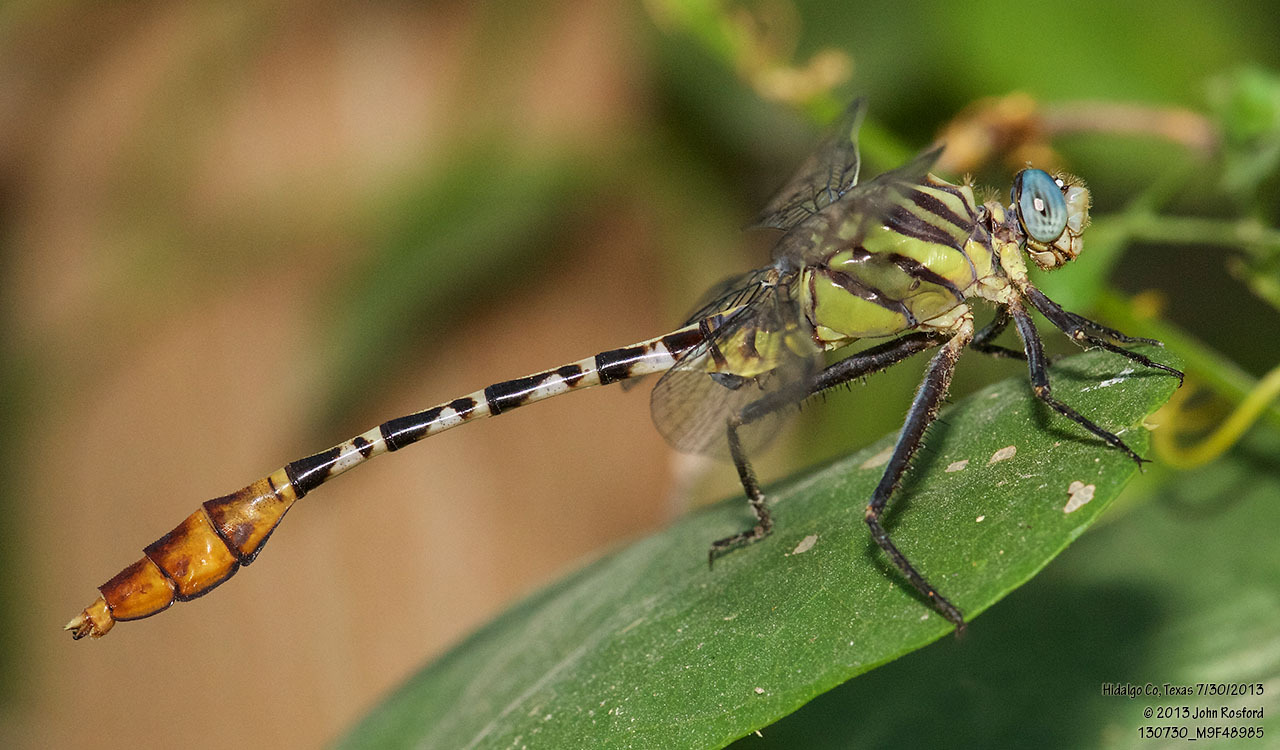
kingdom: Animalia
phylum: Arthropoda
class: Insecta
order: Odonata
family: Gomphidae
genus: Dromogomphus
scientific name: Dromogomphus spoliatus
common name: Flag-tailed spinyleg
